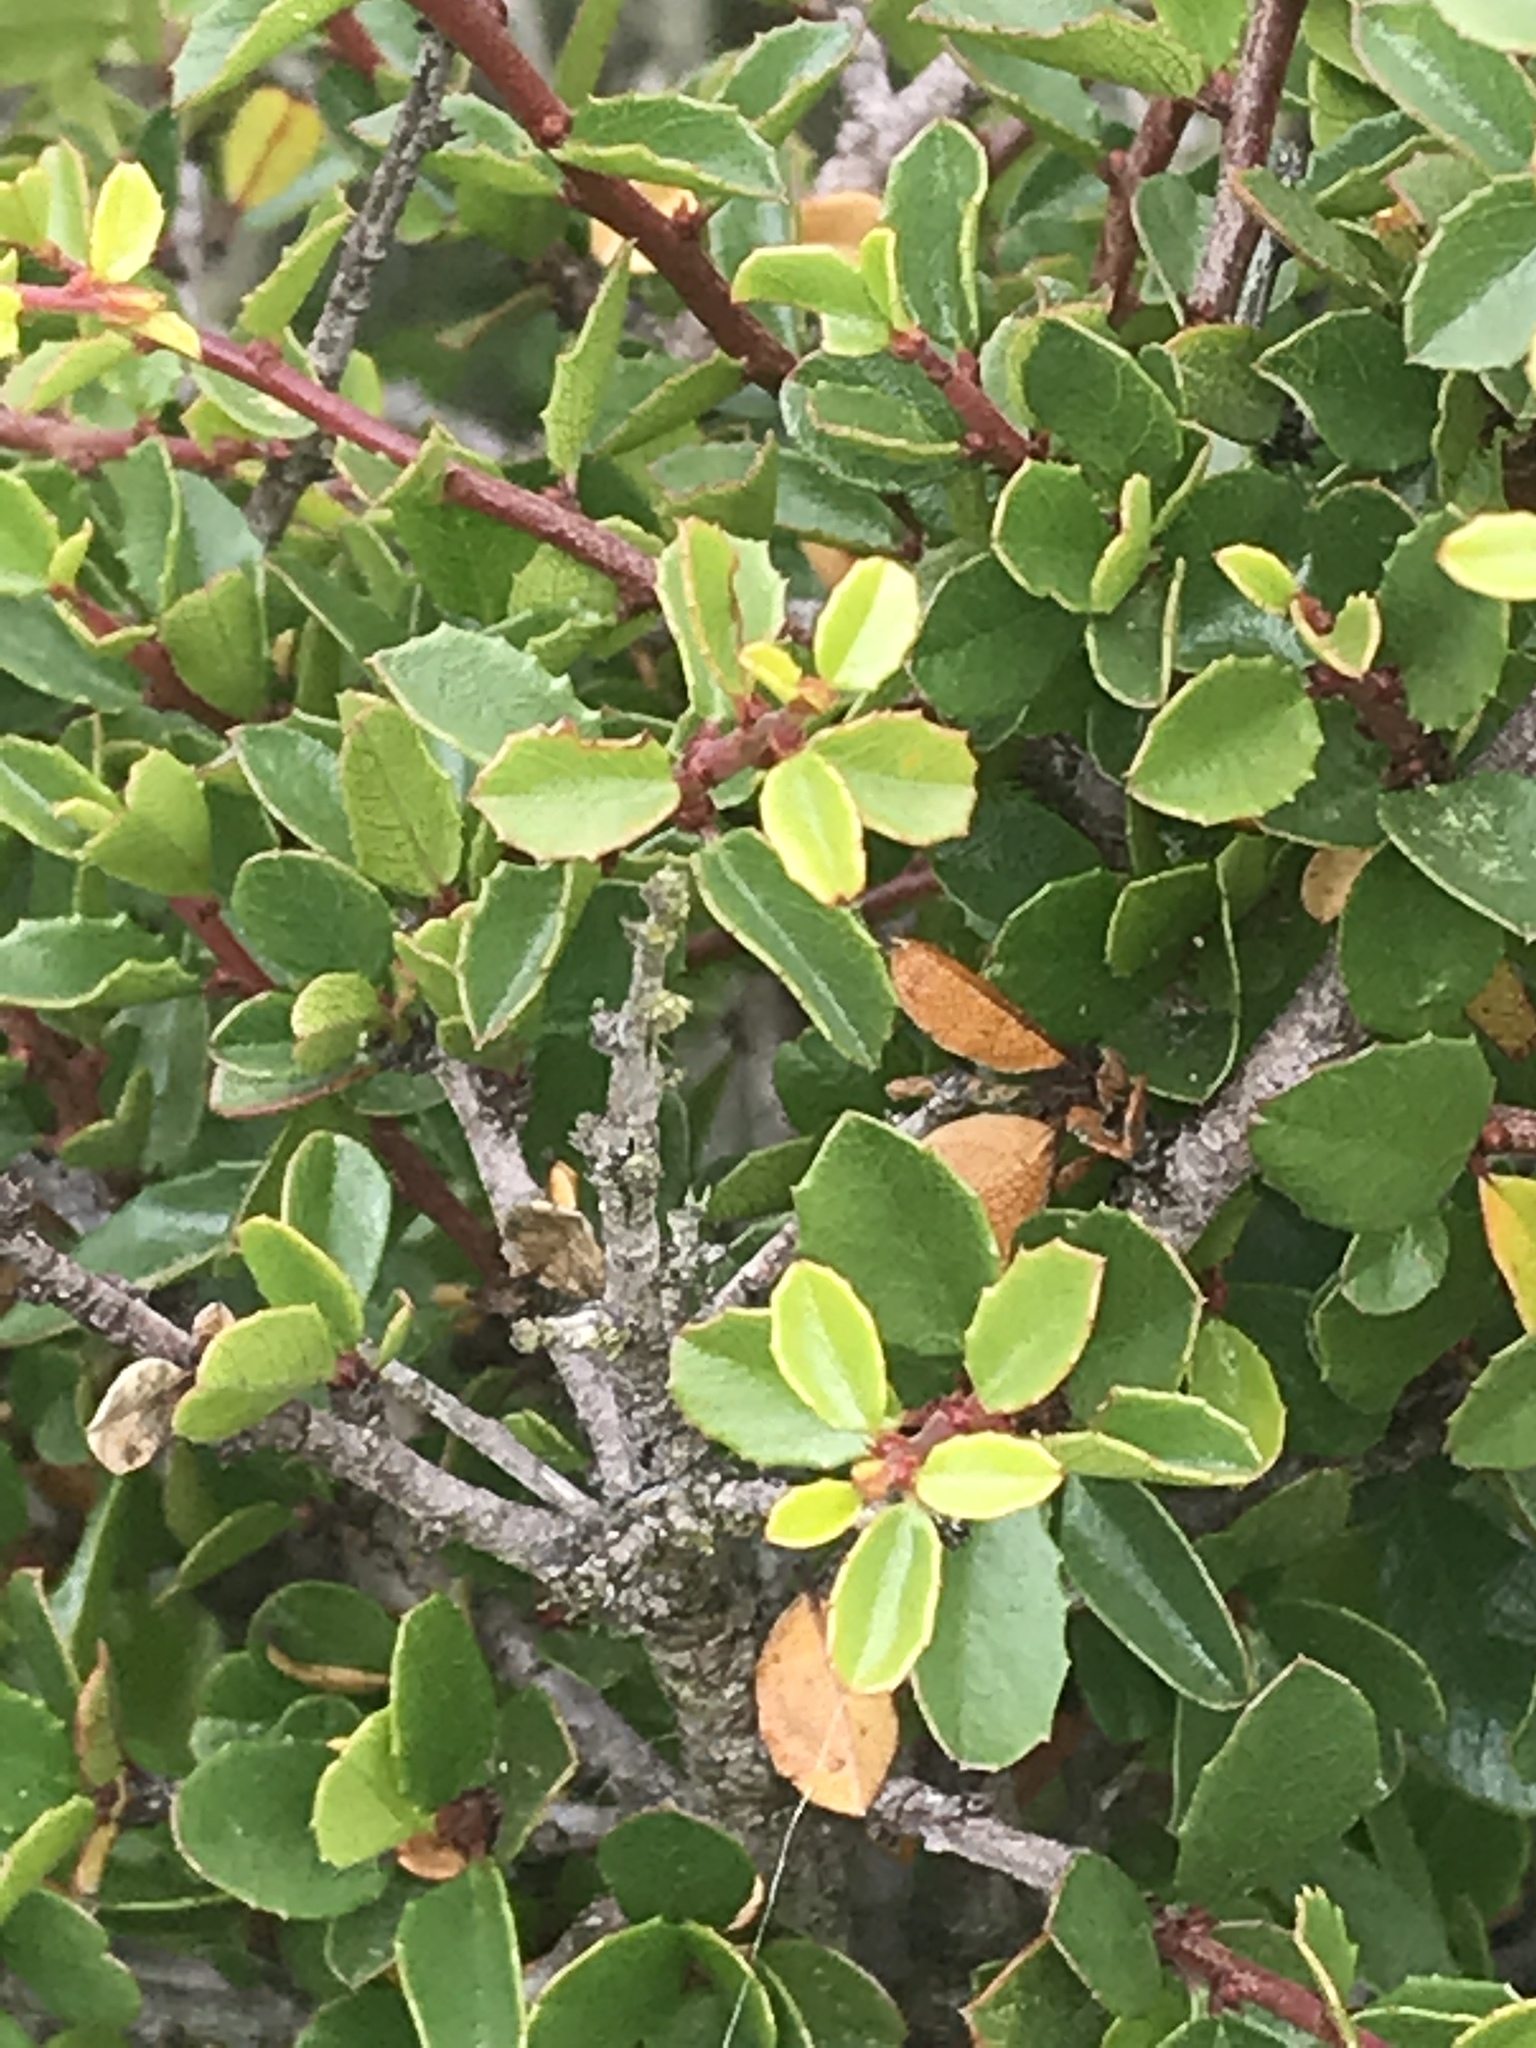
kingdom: Plantae
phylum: Tracheophyta
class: Magnoliopsida
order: Rosales
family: Rhamnaceae
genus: Endotropis
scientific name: Endotropis crocea
